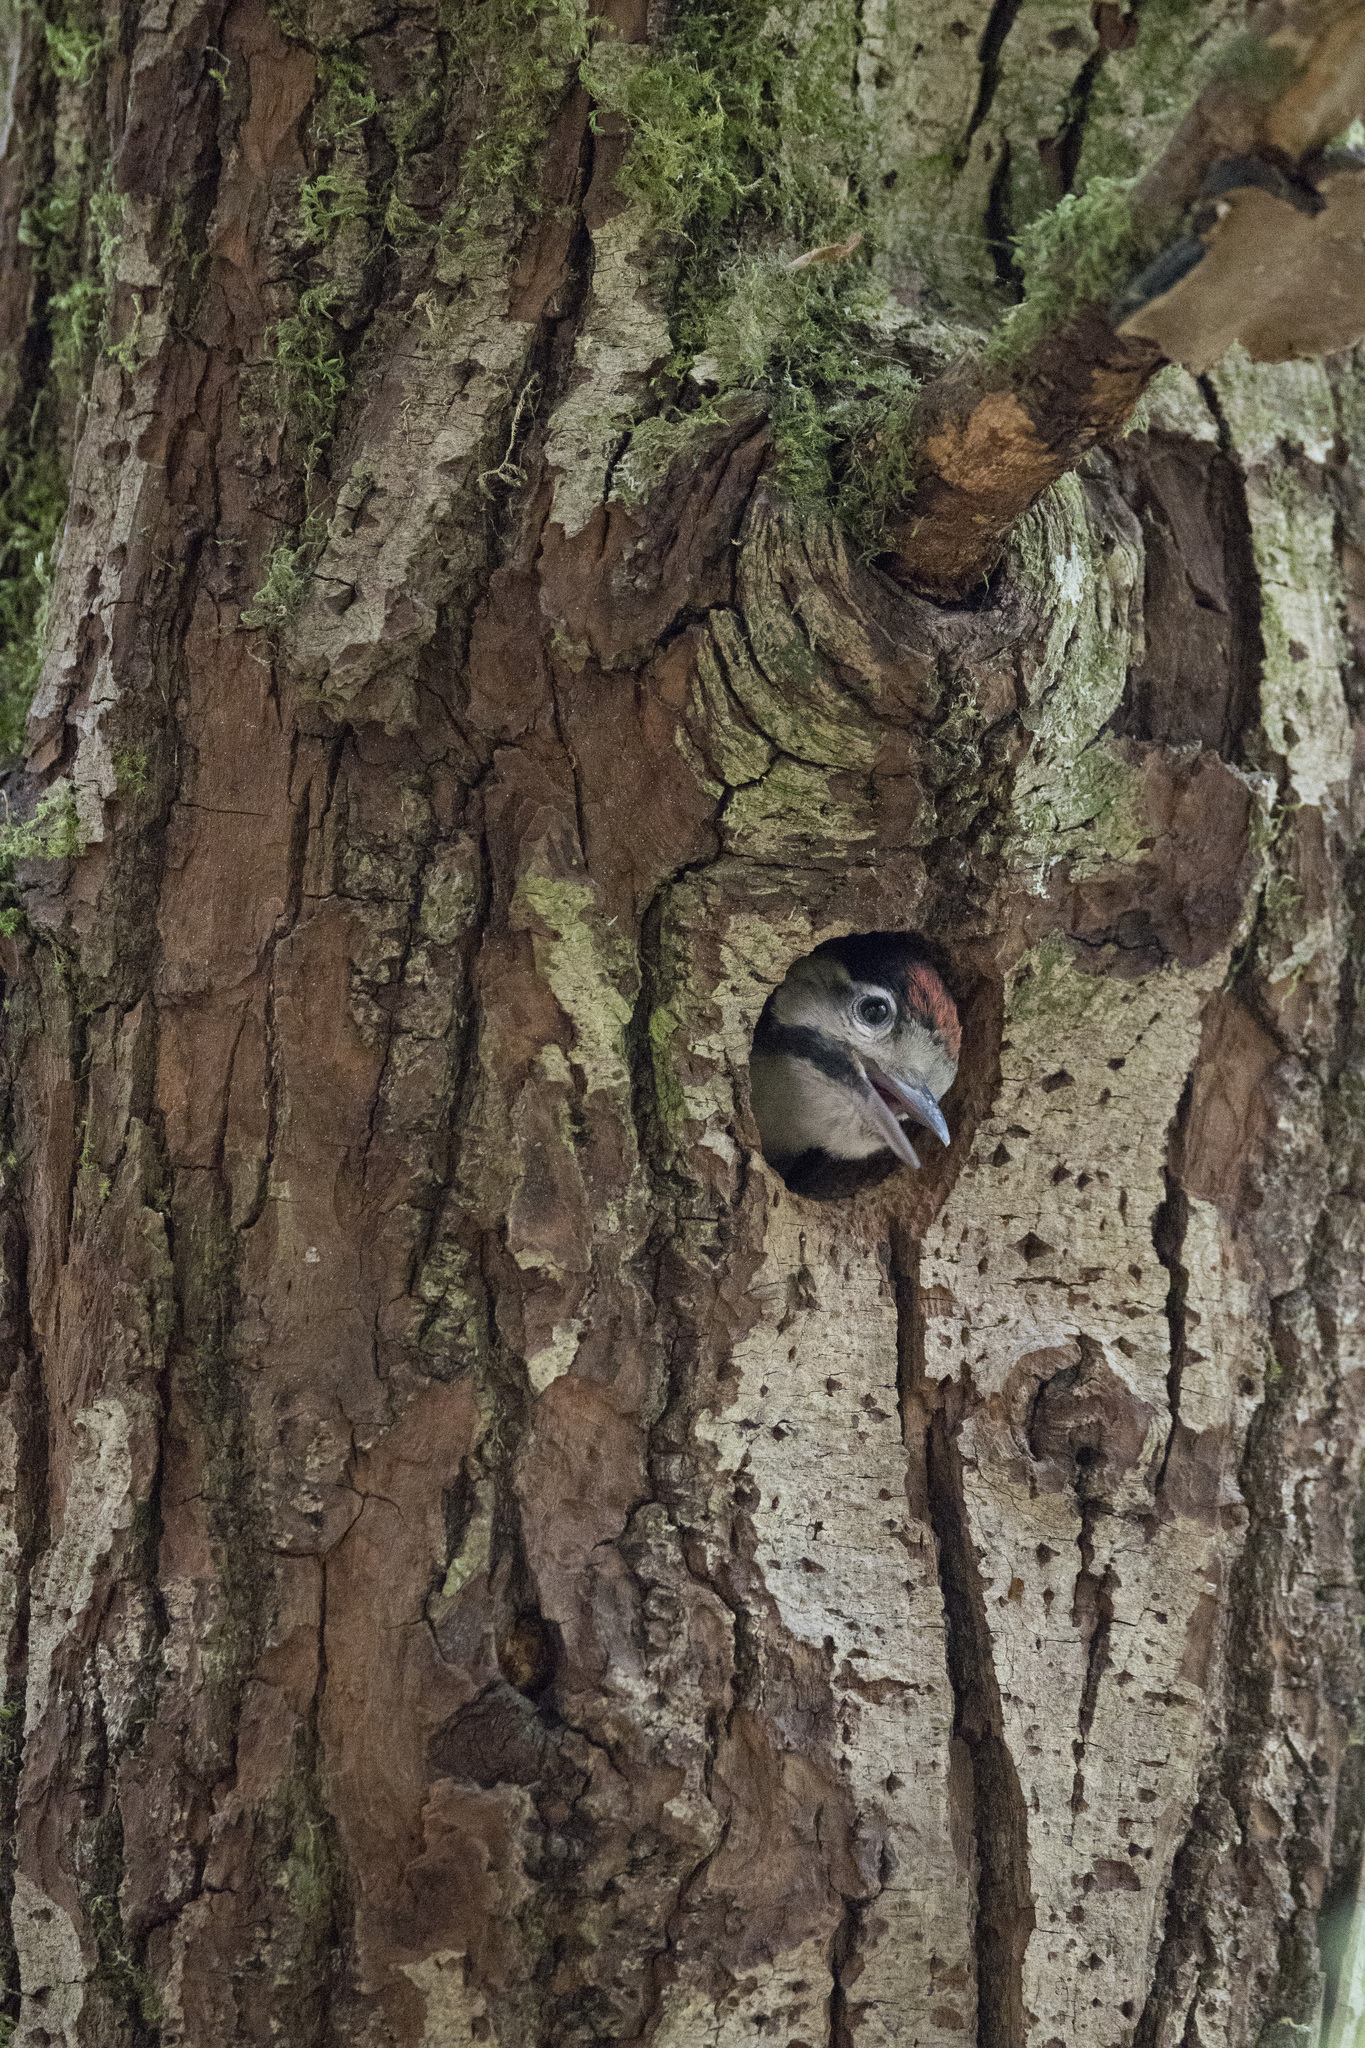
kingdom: Animalia
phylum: Chordata
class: Aves
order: Piciformes
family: Picidae
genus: Dendrocopos
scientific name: Dendrocopos major
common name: Great spotted woodpecker
